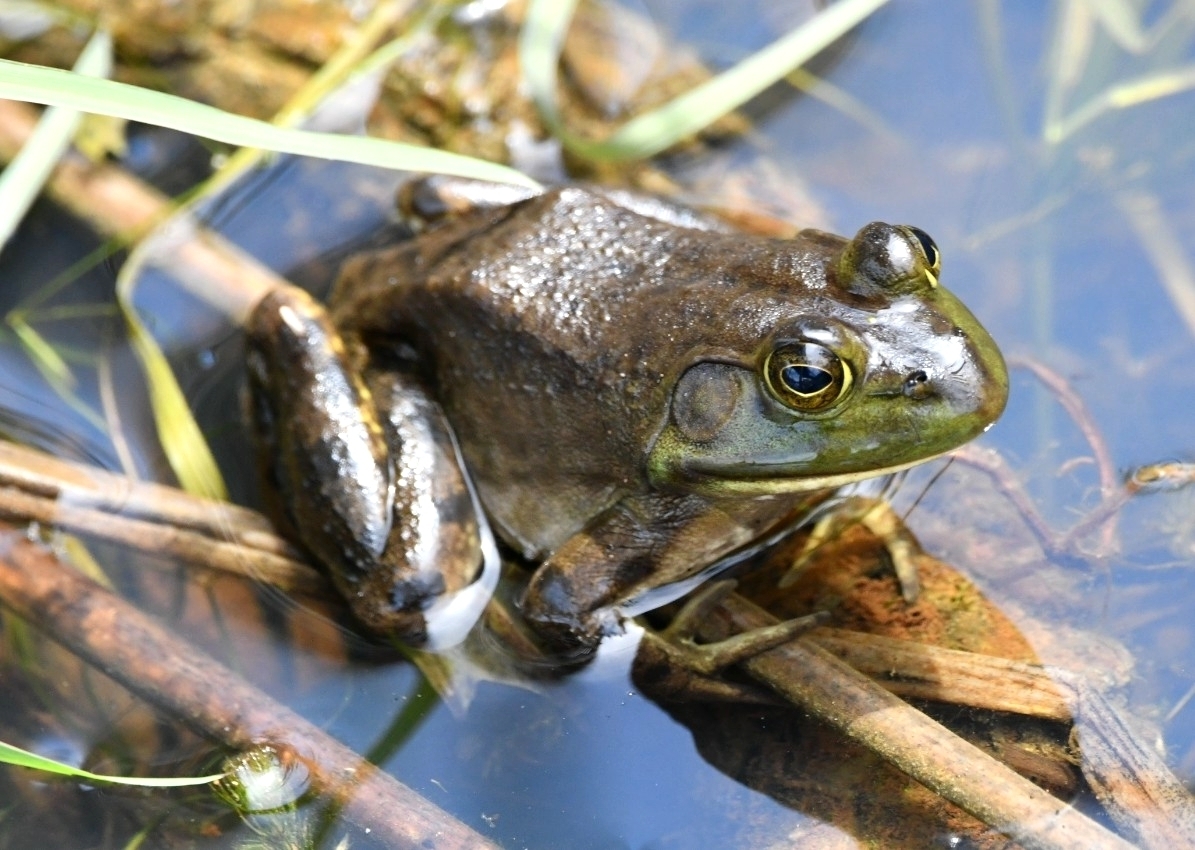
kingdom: Animalia
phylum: Chordata
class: Amphibia
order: Anura
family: Ranidae
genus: Lithobates
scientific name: Lithobates catesbeianus
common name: American bullfrog
